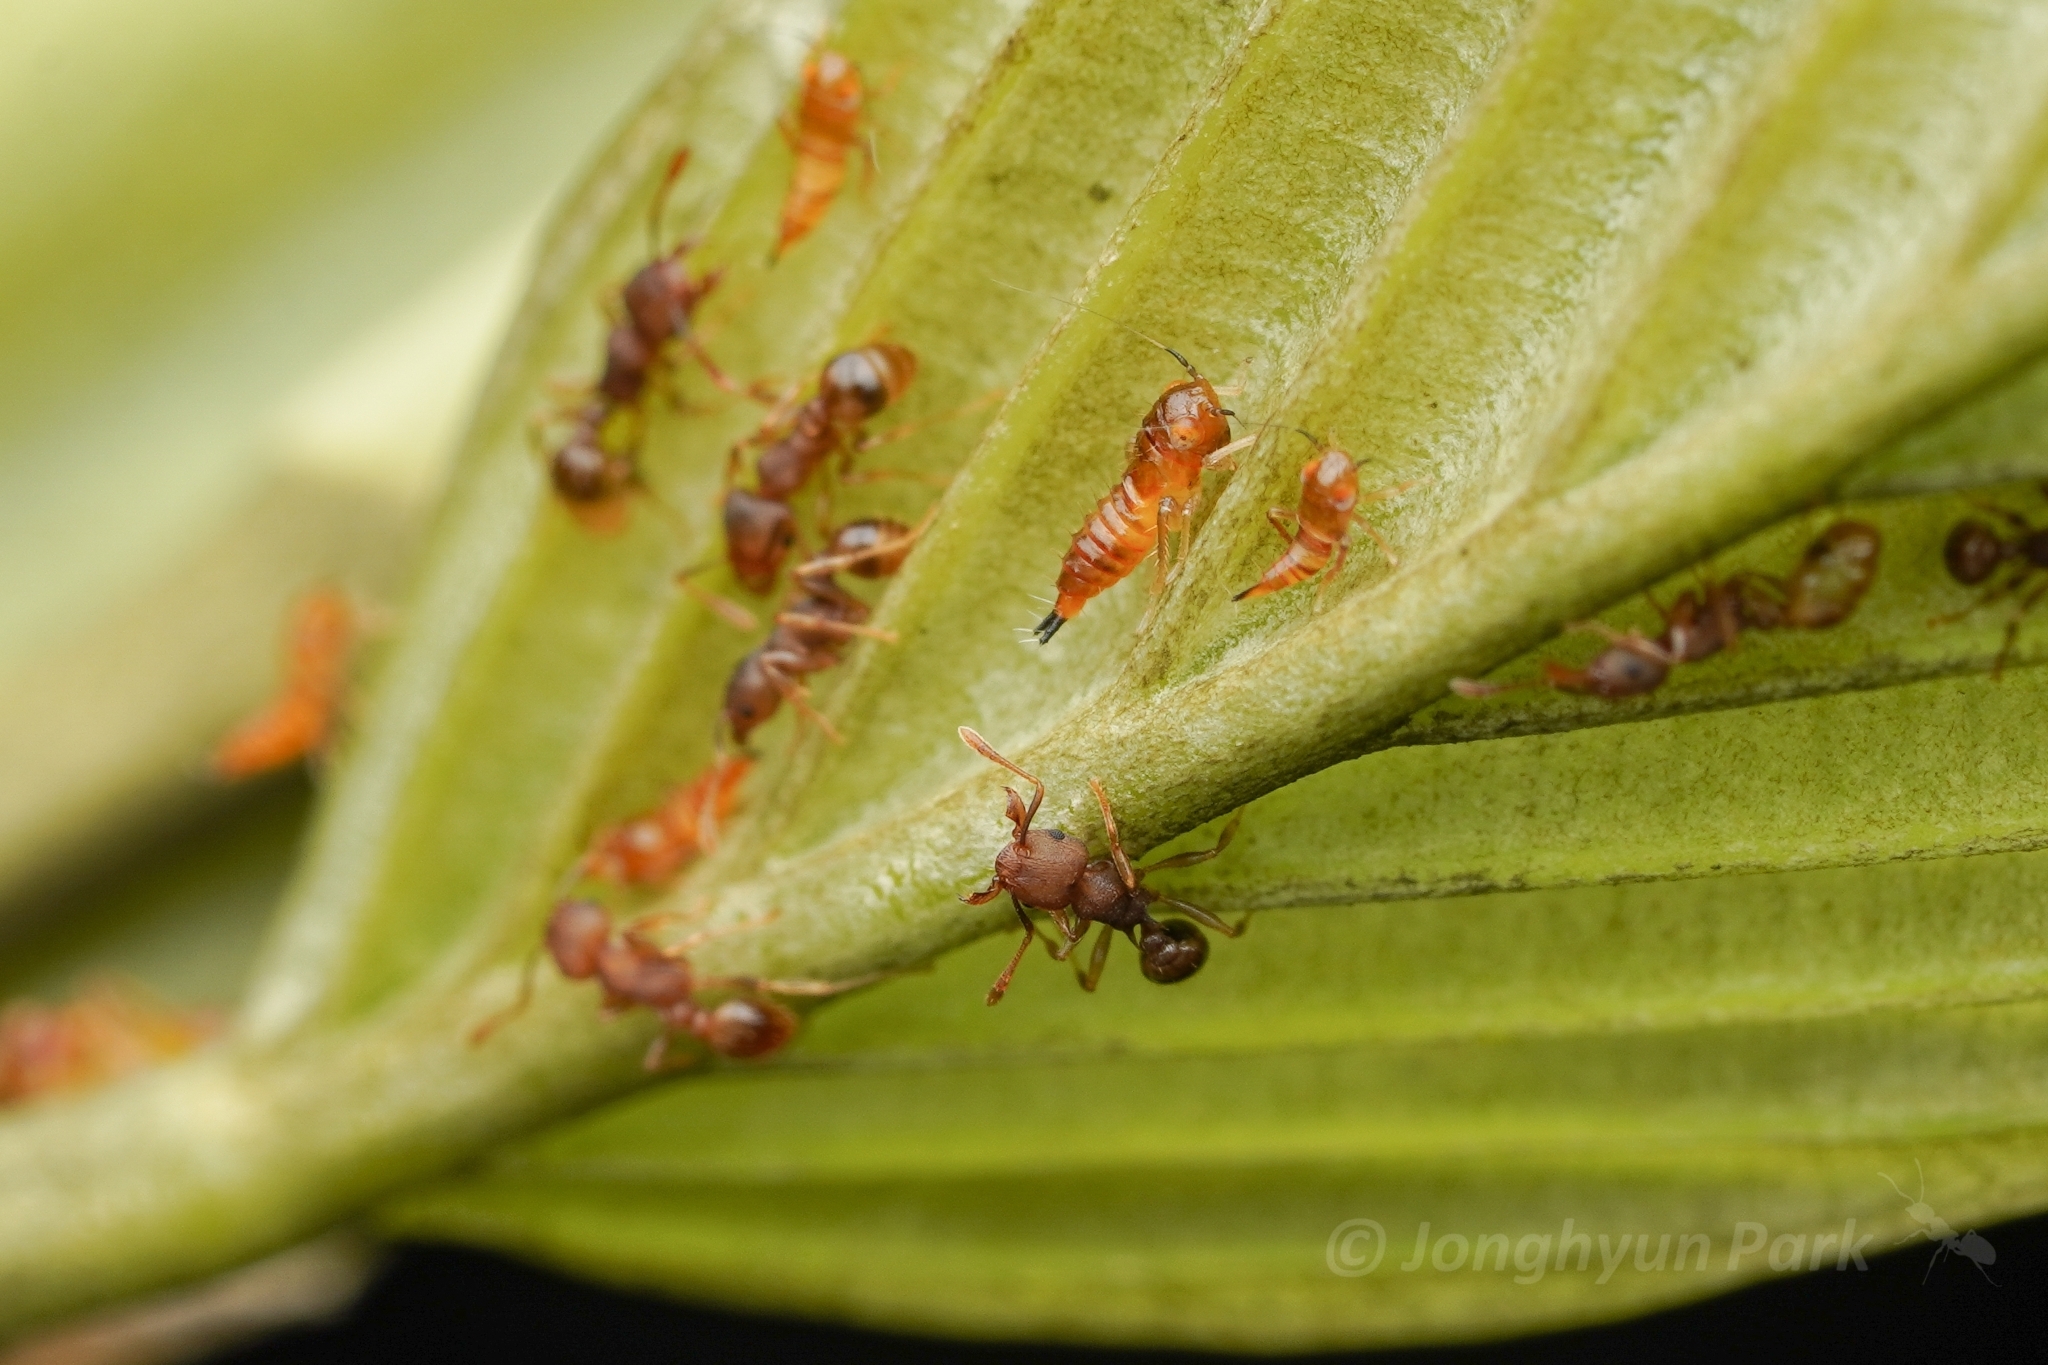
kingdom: Animalia
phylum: Arthropoda
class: Insecta
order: Hymenoptera
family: Formicidae
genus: Tetramorium
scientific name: Tetramorium wroughtonii
